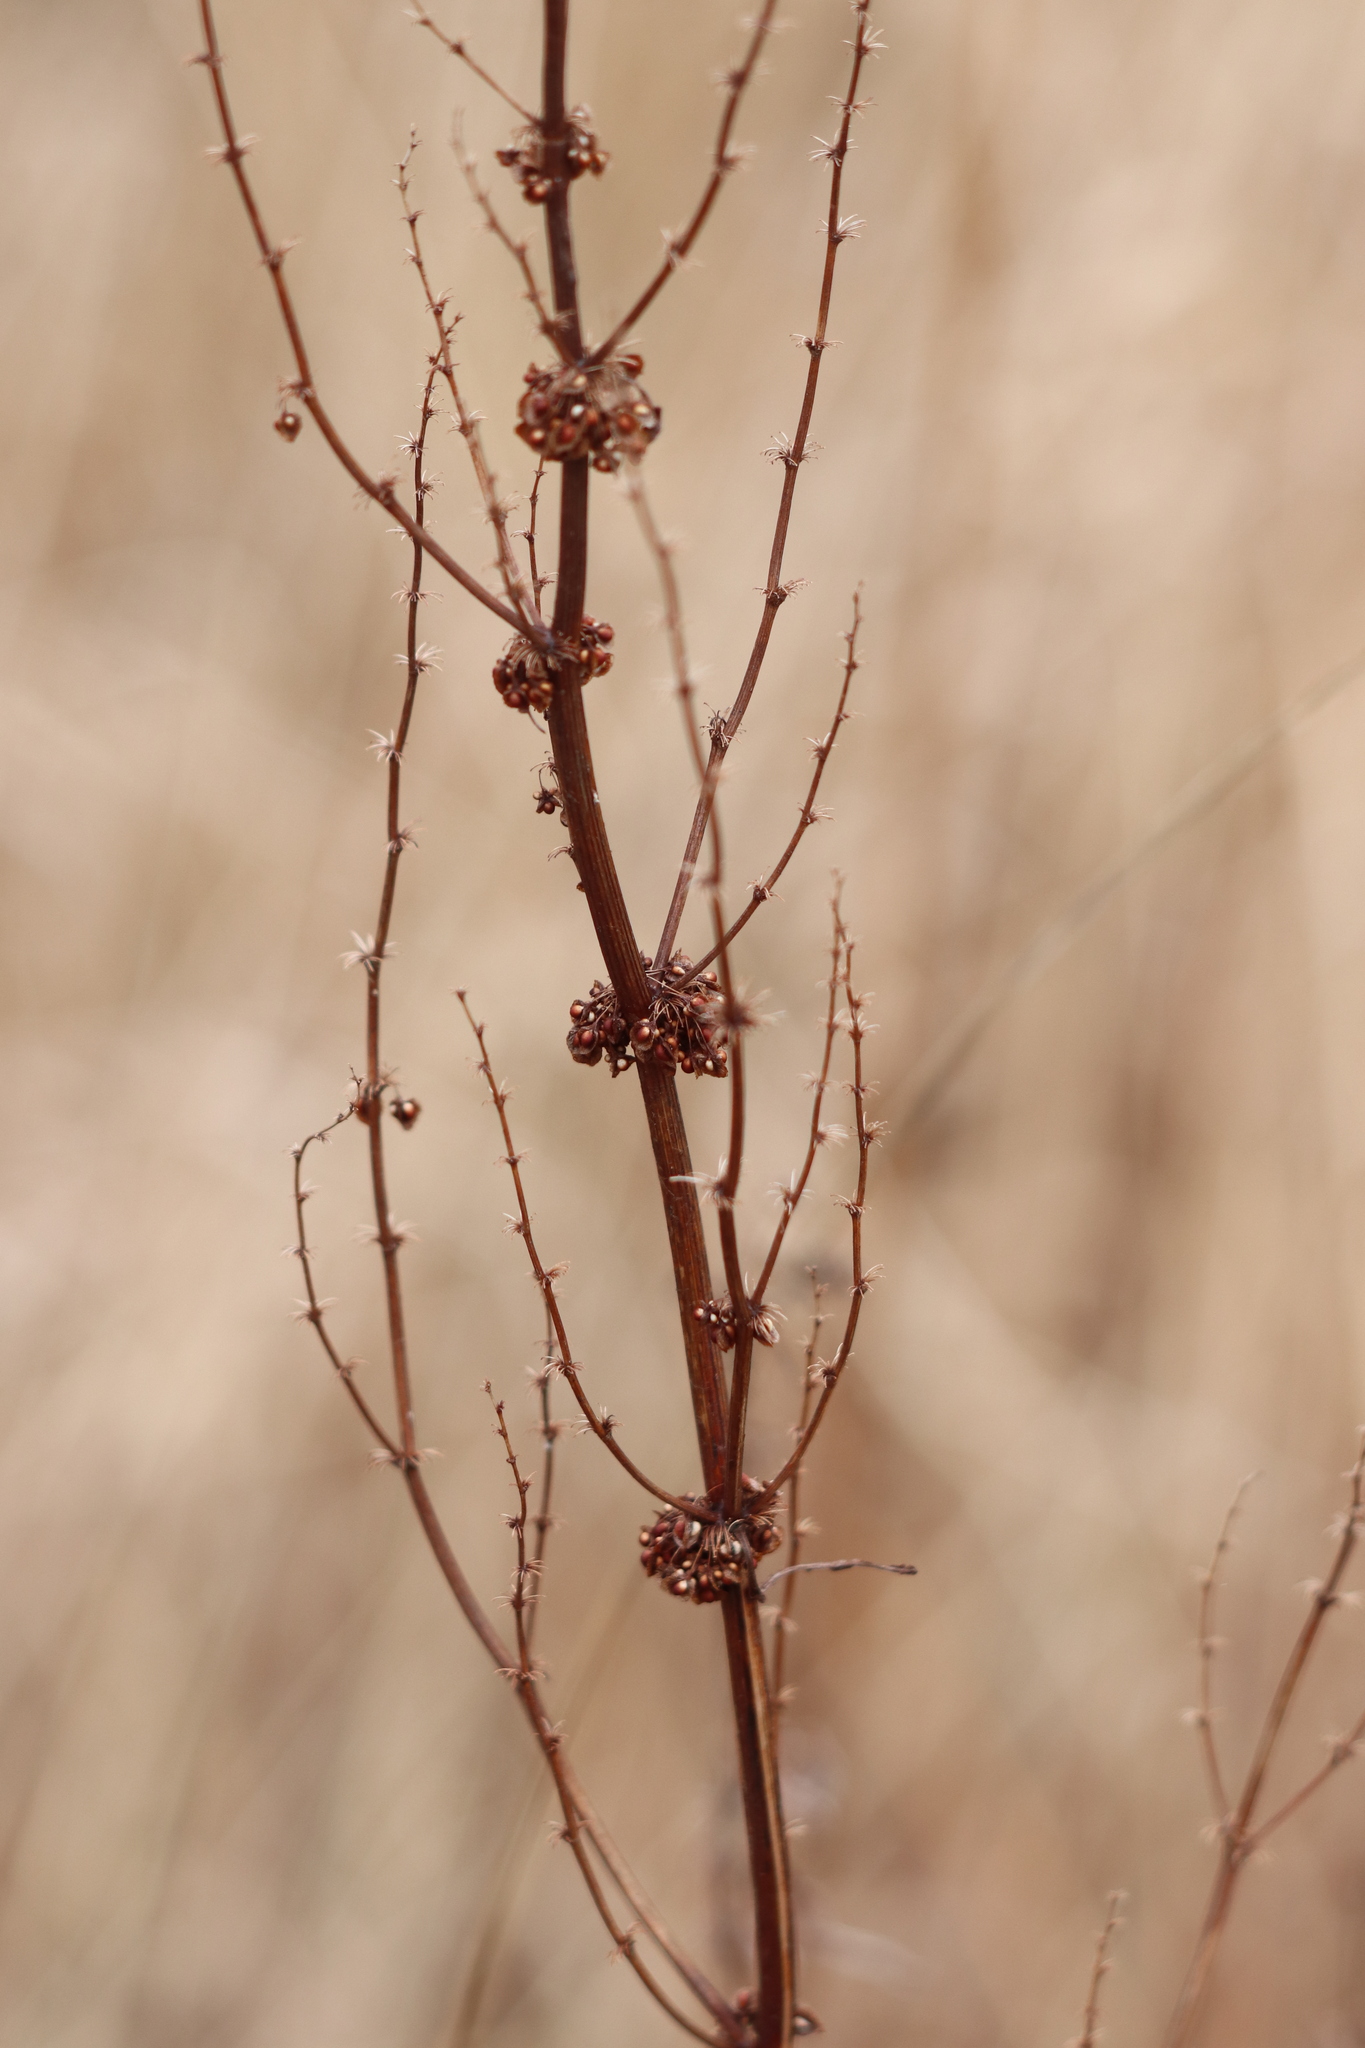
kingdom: Plantae
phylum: Tracheophyta
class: Magnoliopsida
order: Caryophyllales
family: Polygonaceae
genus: Rumex
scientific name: Rumex crispus
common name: Curled dock
